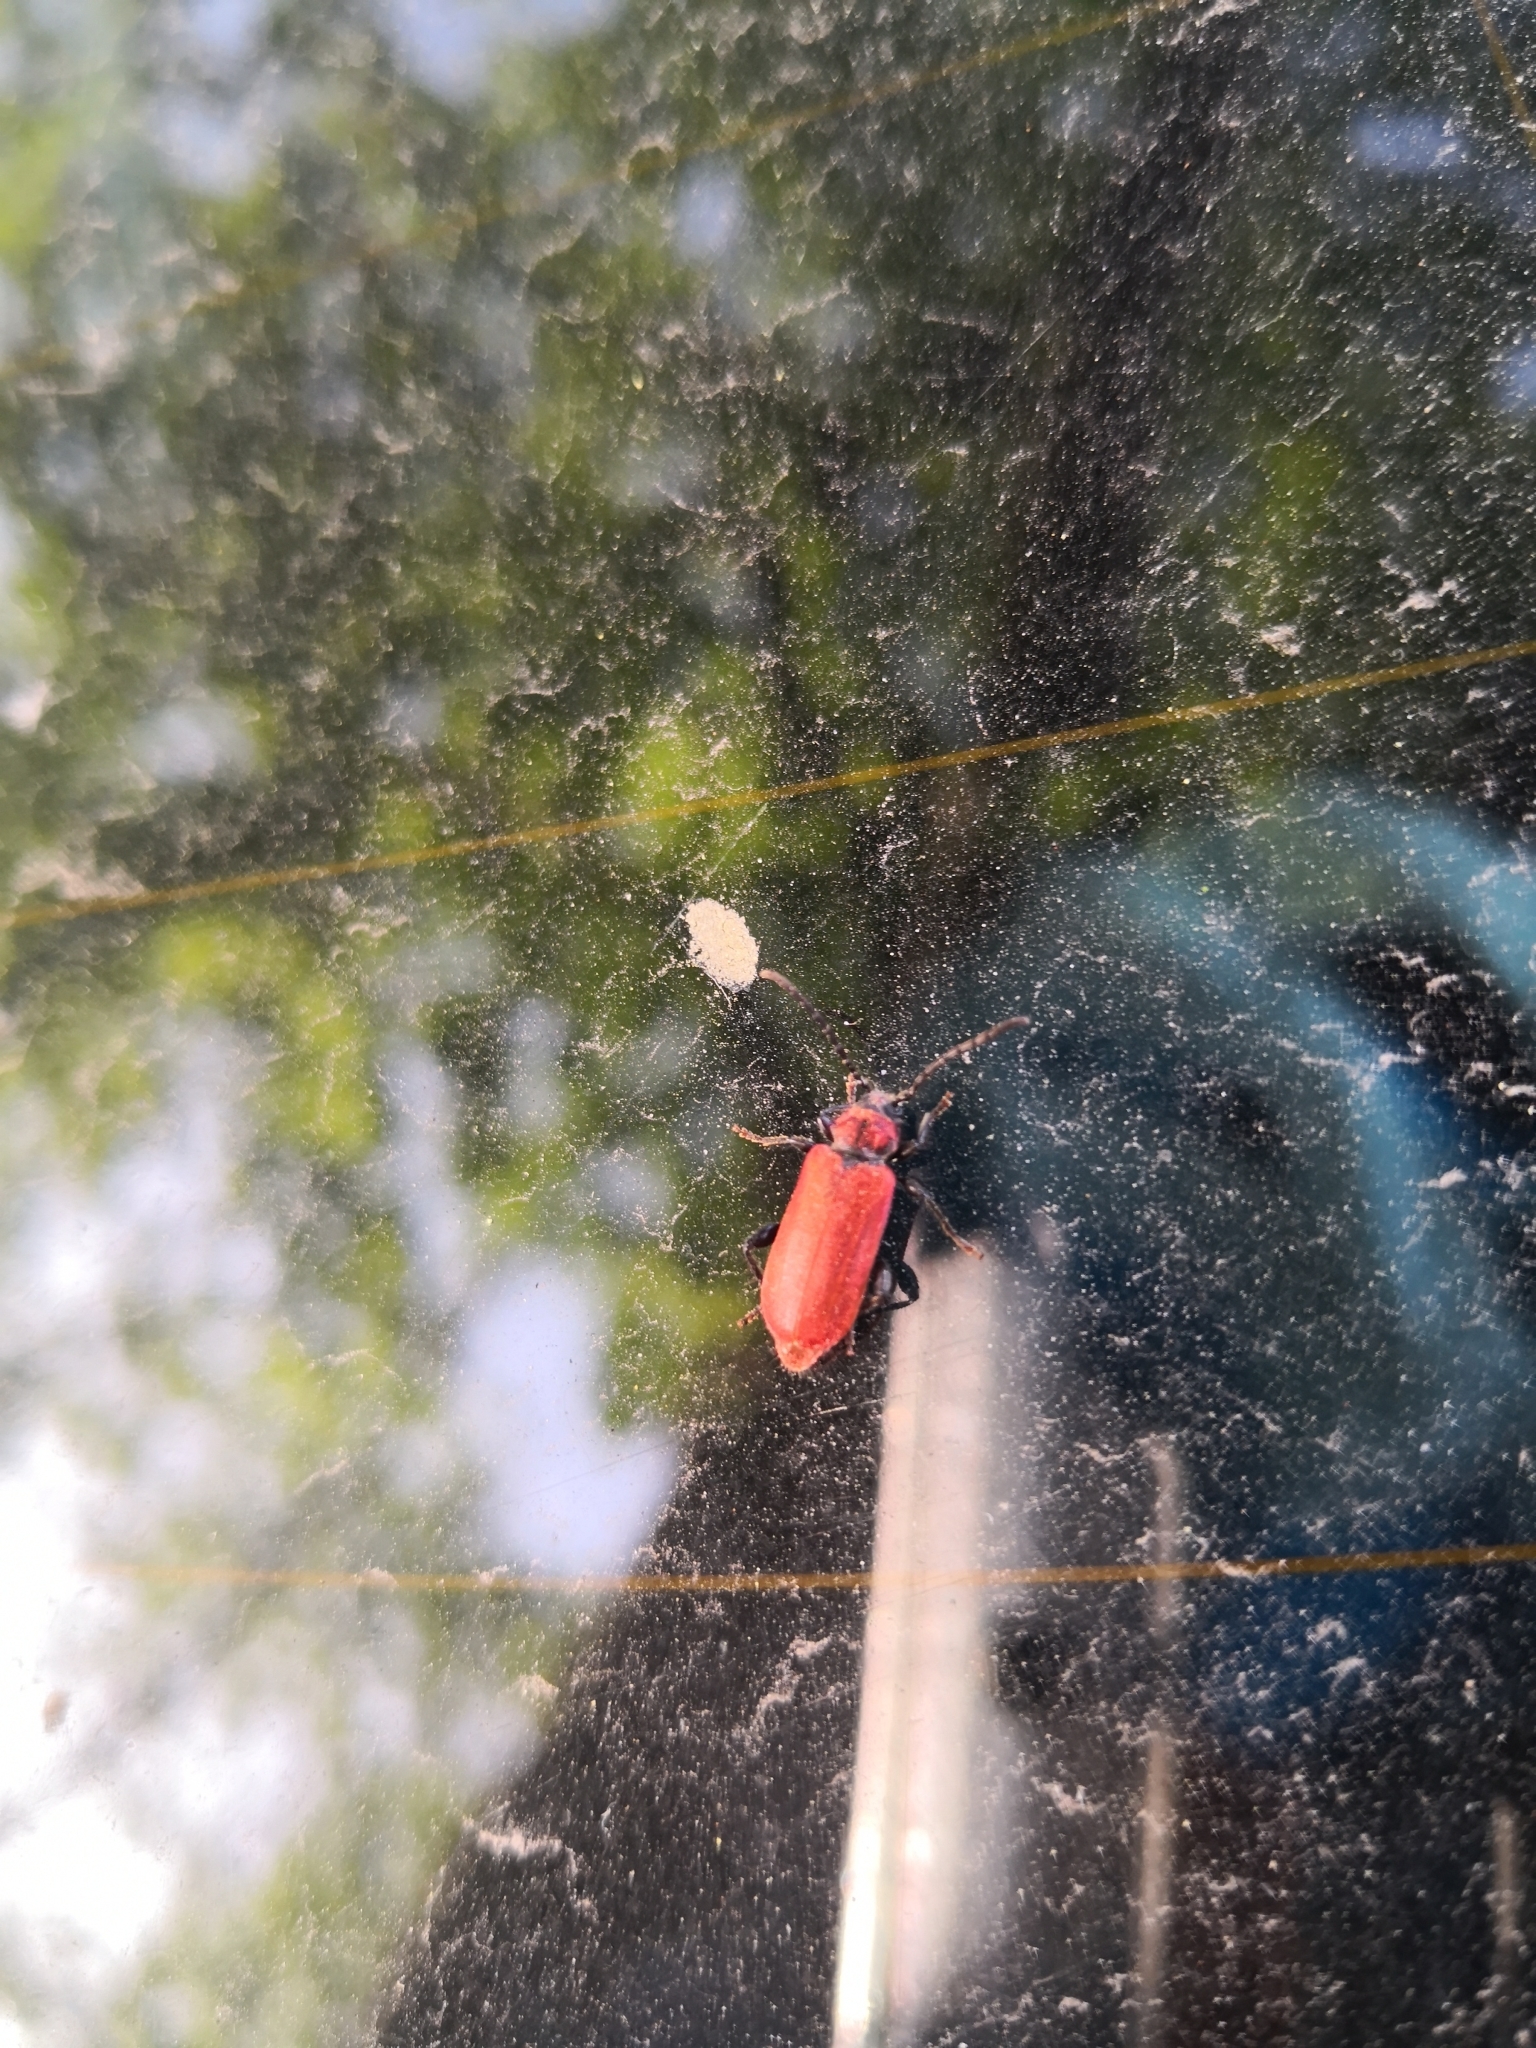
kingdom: Animalia
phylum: Arthropoda
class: Insecta
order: Coleoptera
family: Pyrochroidae
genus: Pyrochroa
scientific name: Pyrochroa coccinea
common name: Black-headed cardinal beetle
